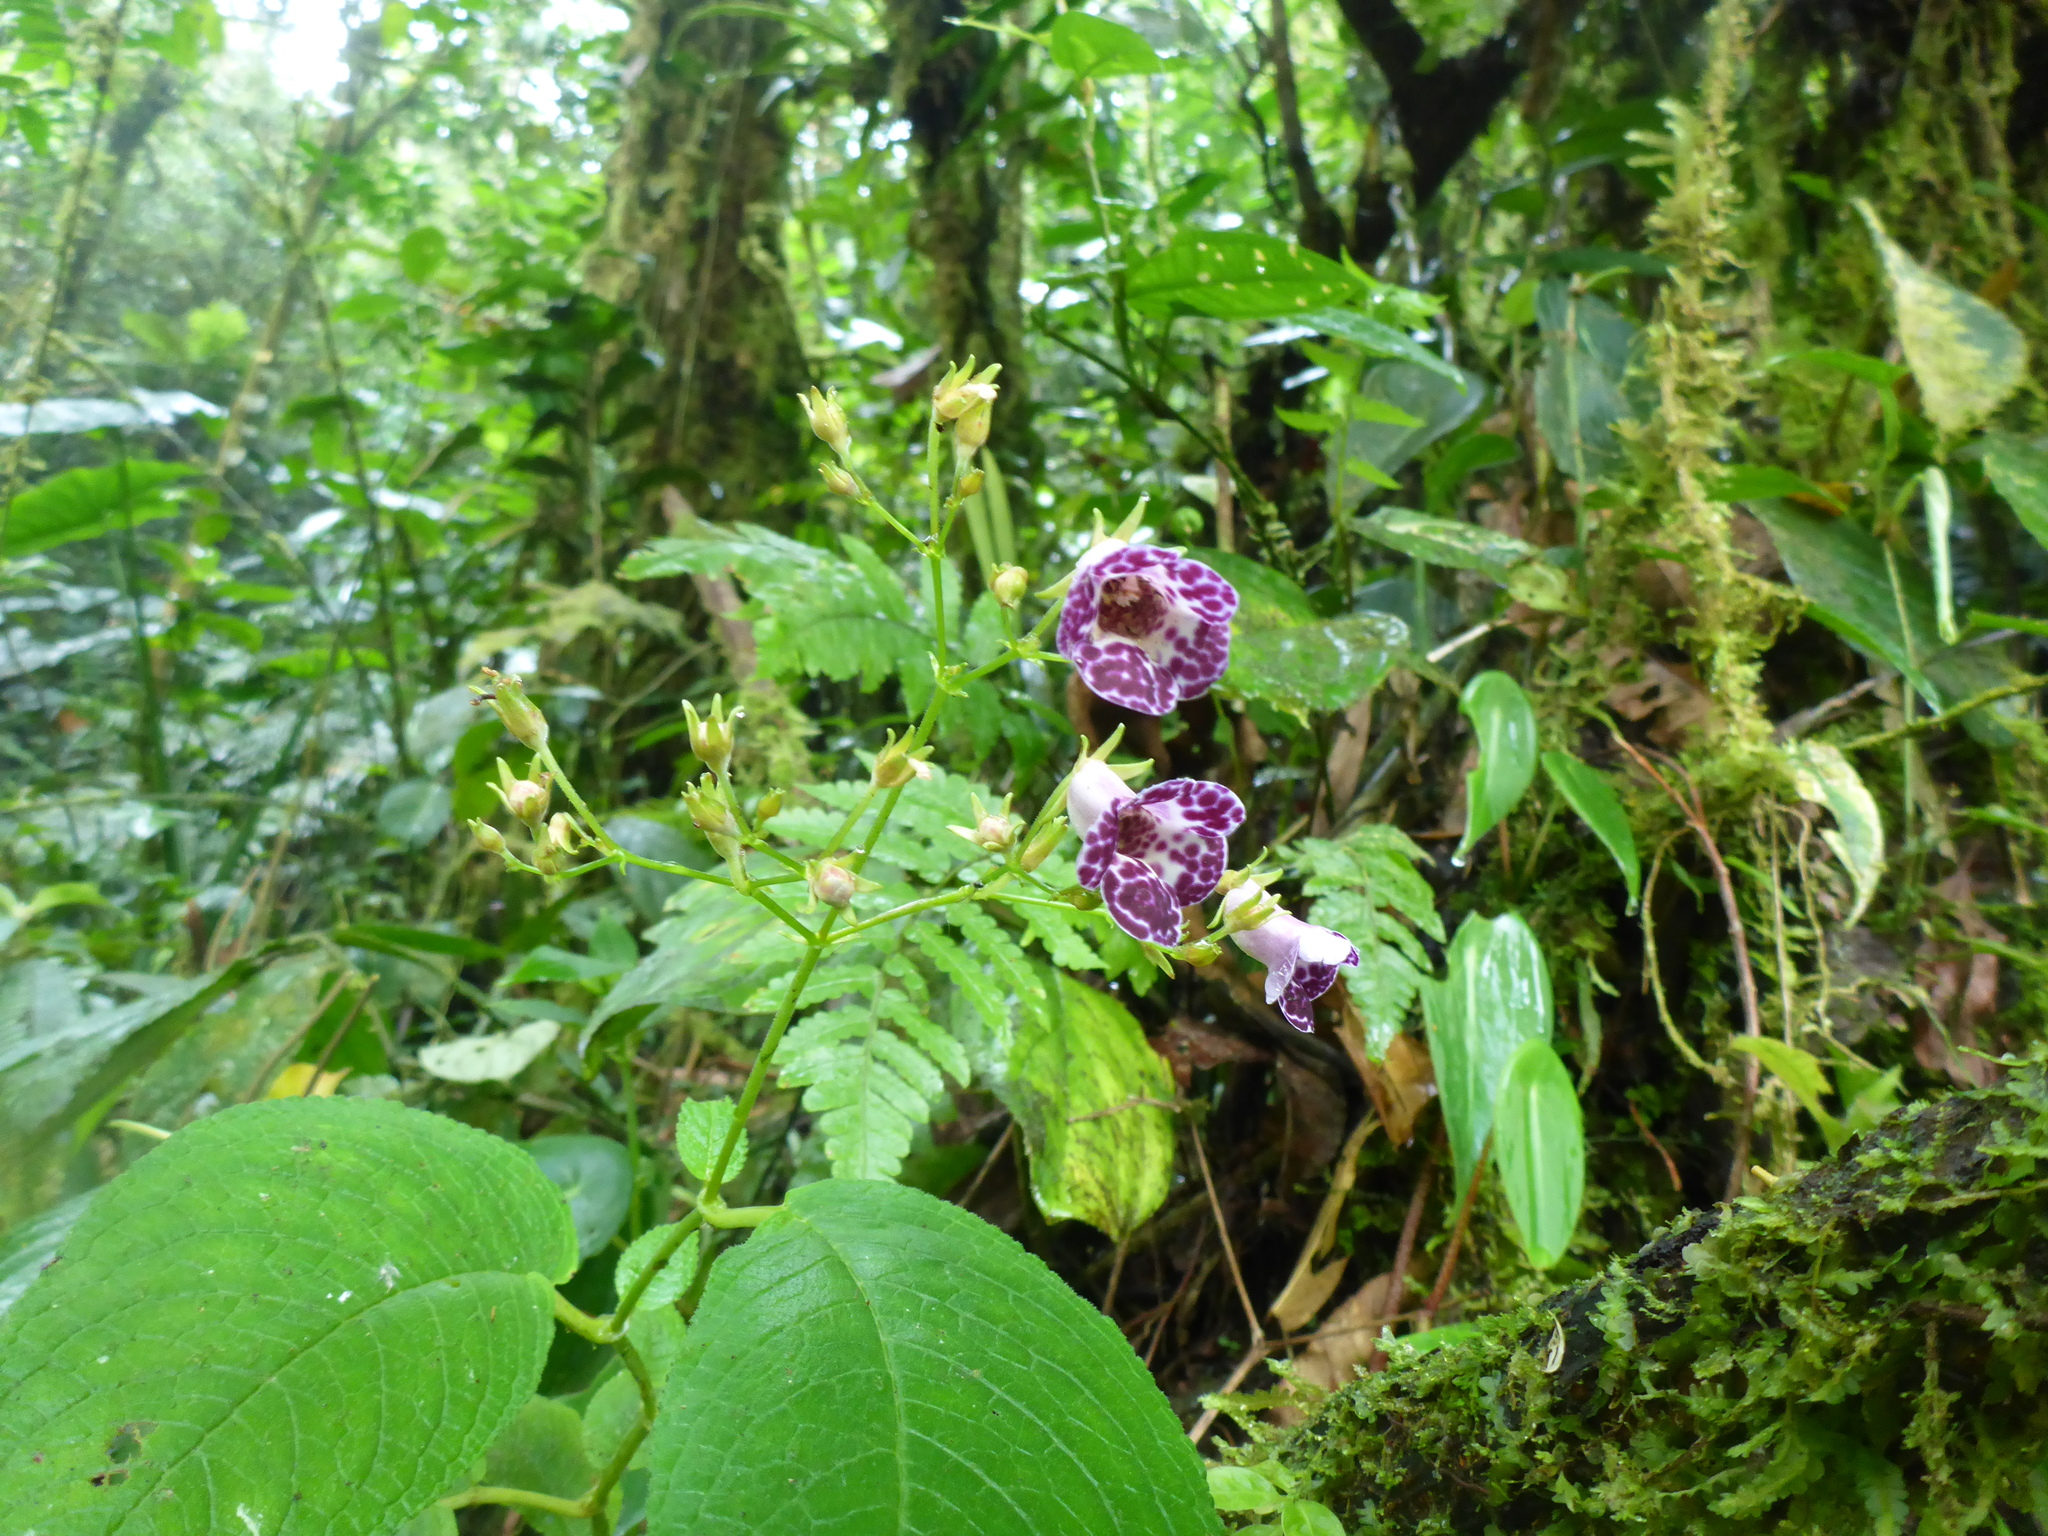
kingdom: Plantae
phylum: Tracheophyta
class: Magnoliopsida
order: Lamiales
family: Gesneriaceae
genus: Monopyle
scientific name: Monopyle paniculata
